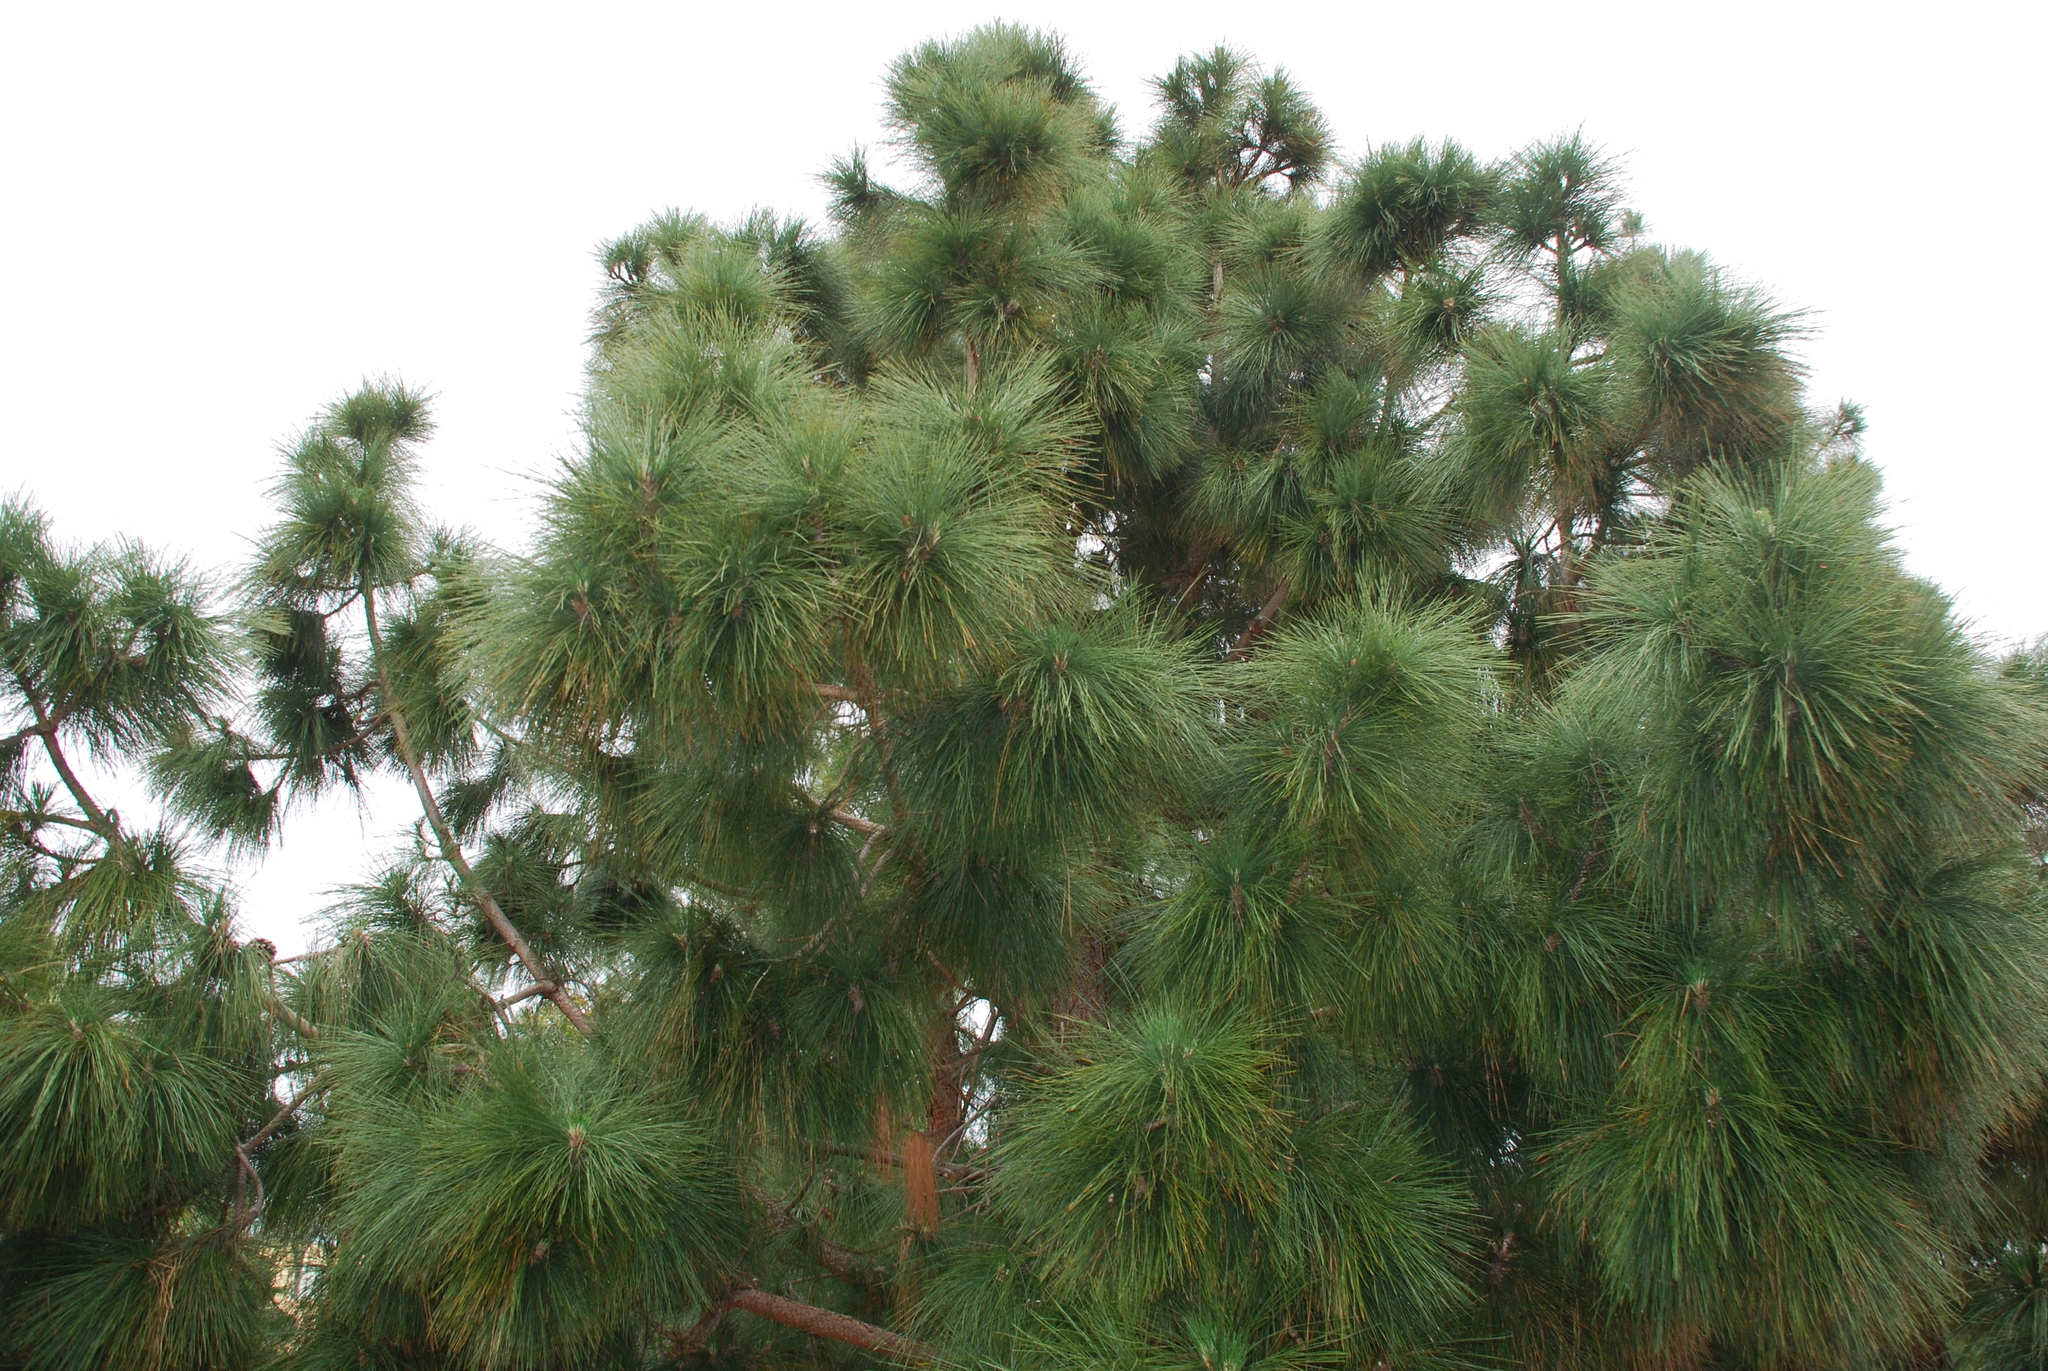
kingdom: Plantae
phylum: Tracheophyta
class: Pinopsida
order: Pinales
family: Pinaceae
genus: Pinus
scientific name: Pinus canariensis
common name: Canary islands pine
